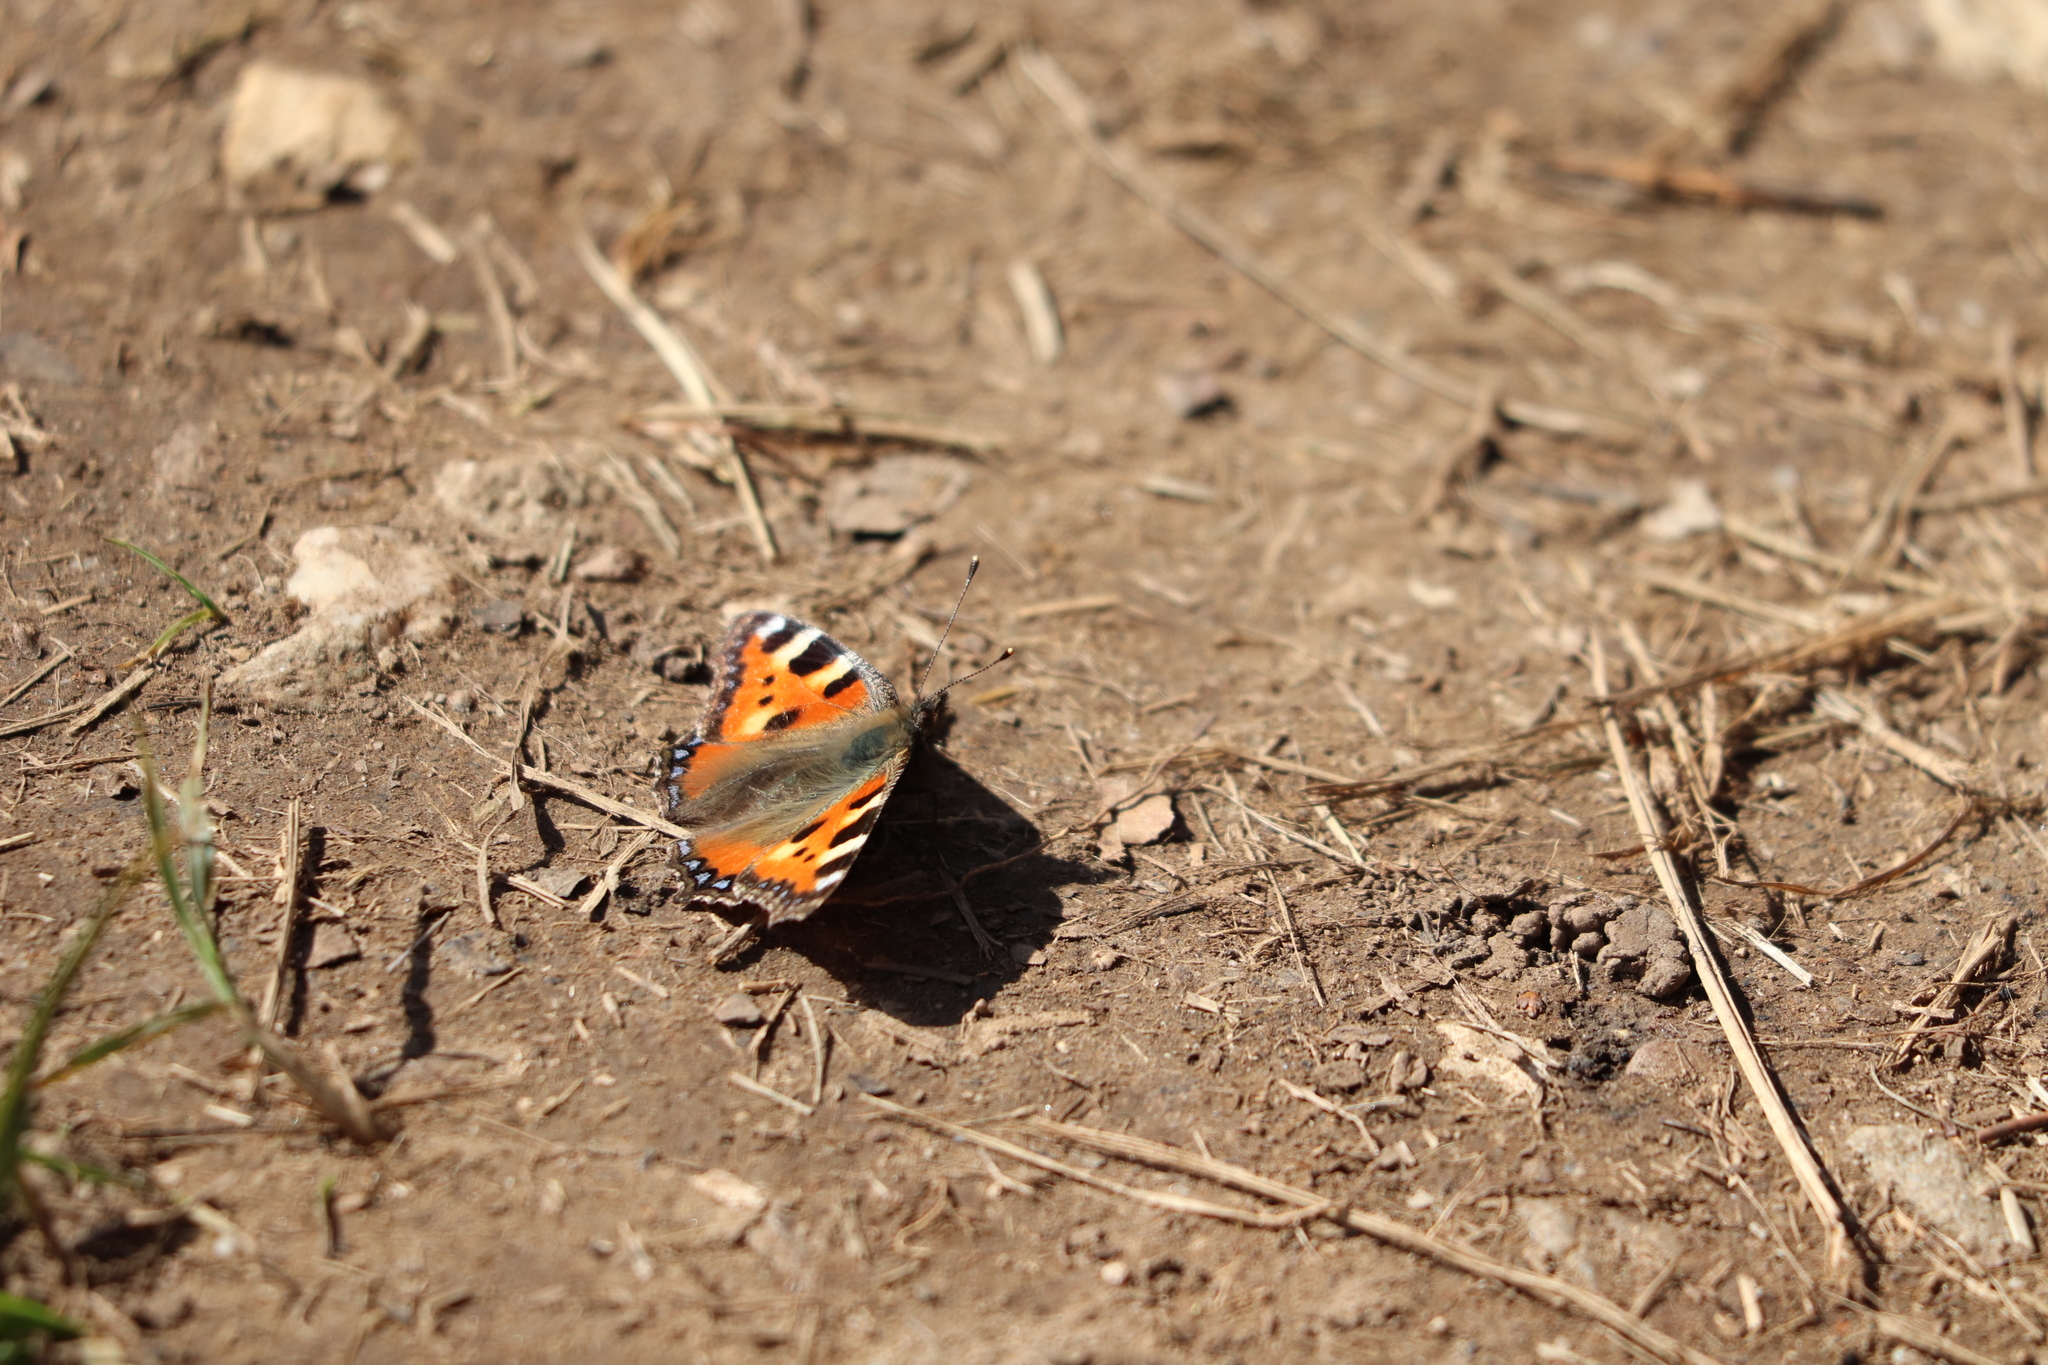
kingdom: Animalia
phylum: Arthropoda
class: Insecta
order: Lepidoptera
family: Nymphalidae
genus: Aglais
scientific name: Aglais urticae
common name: Small tortoiseshell
